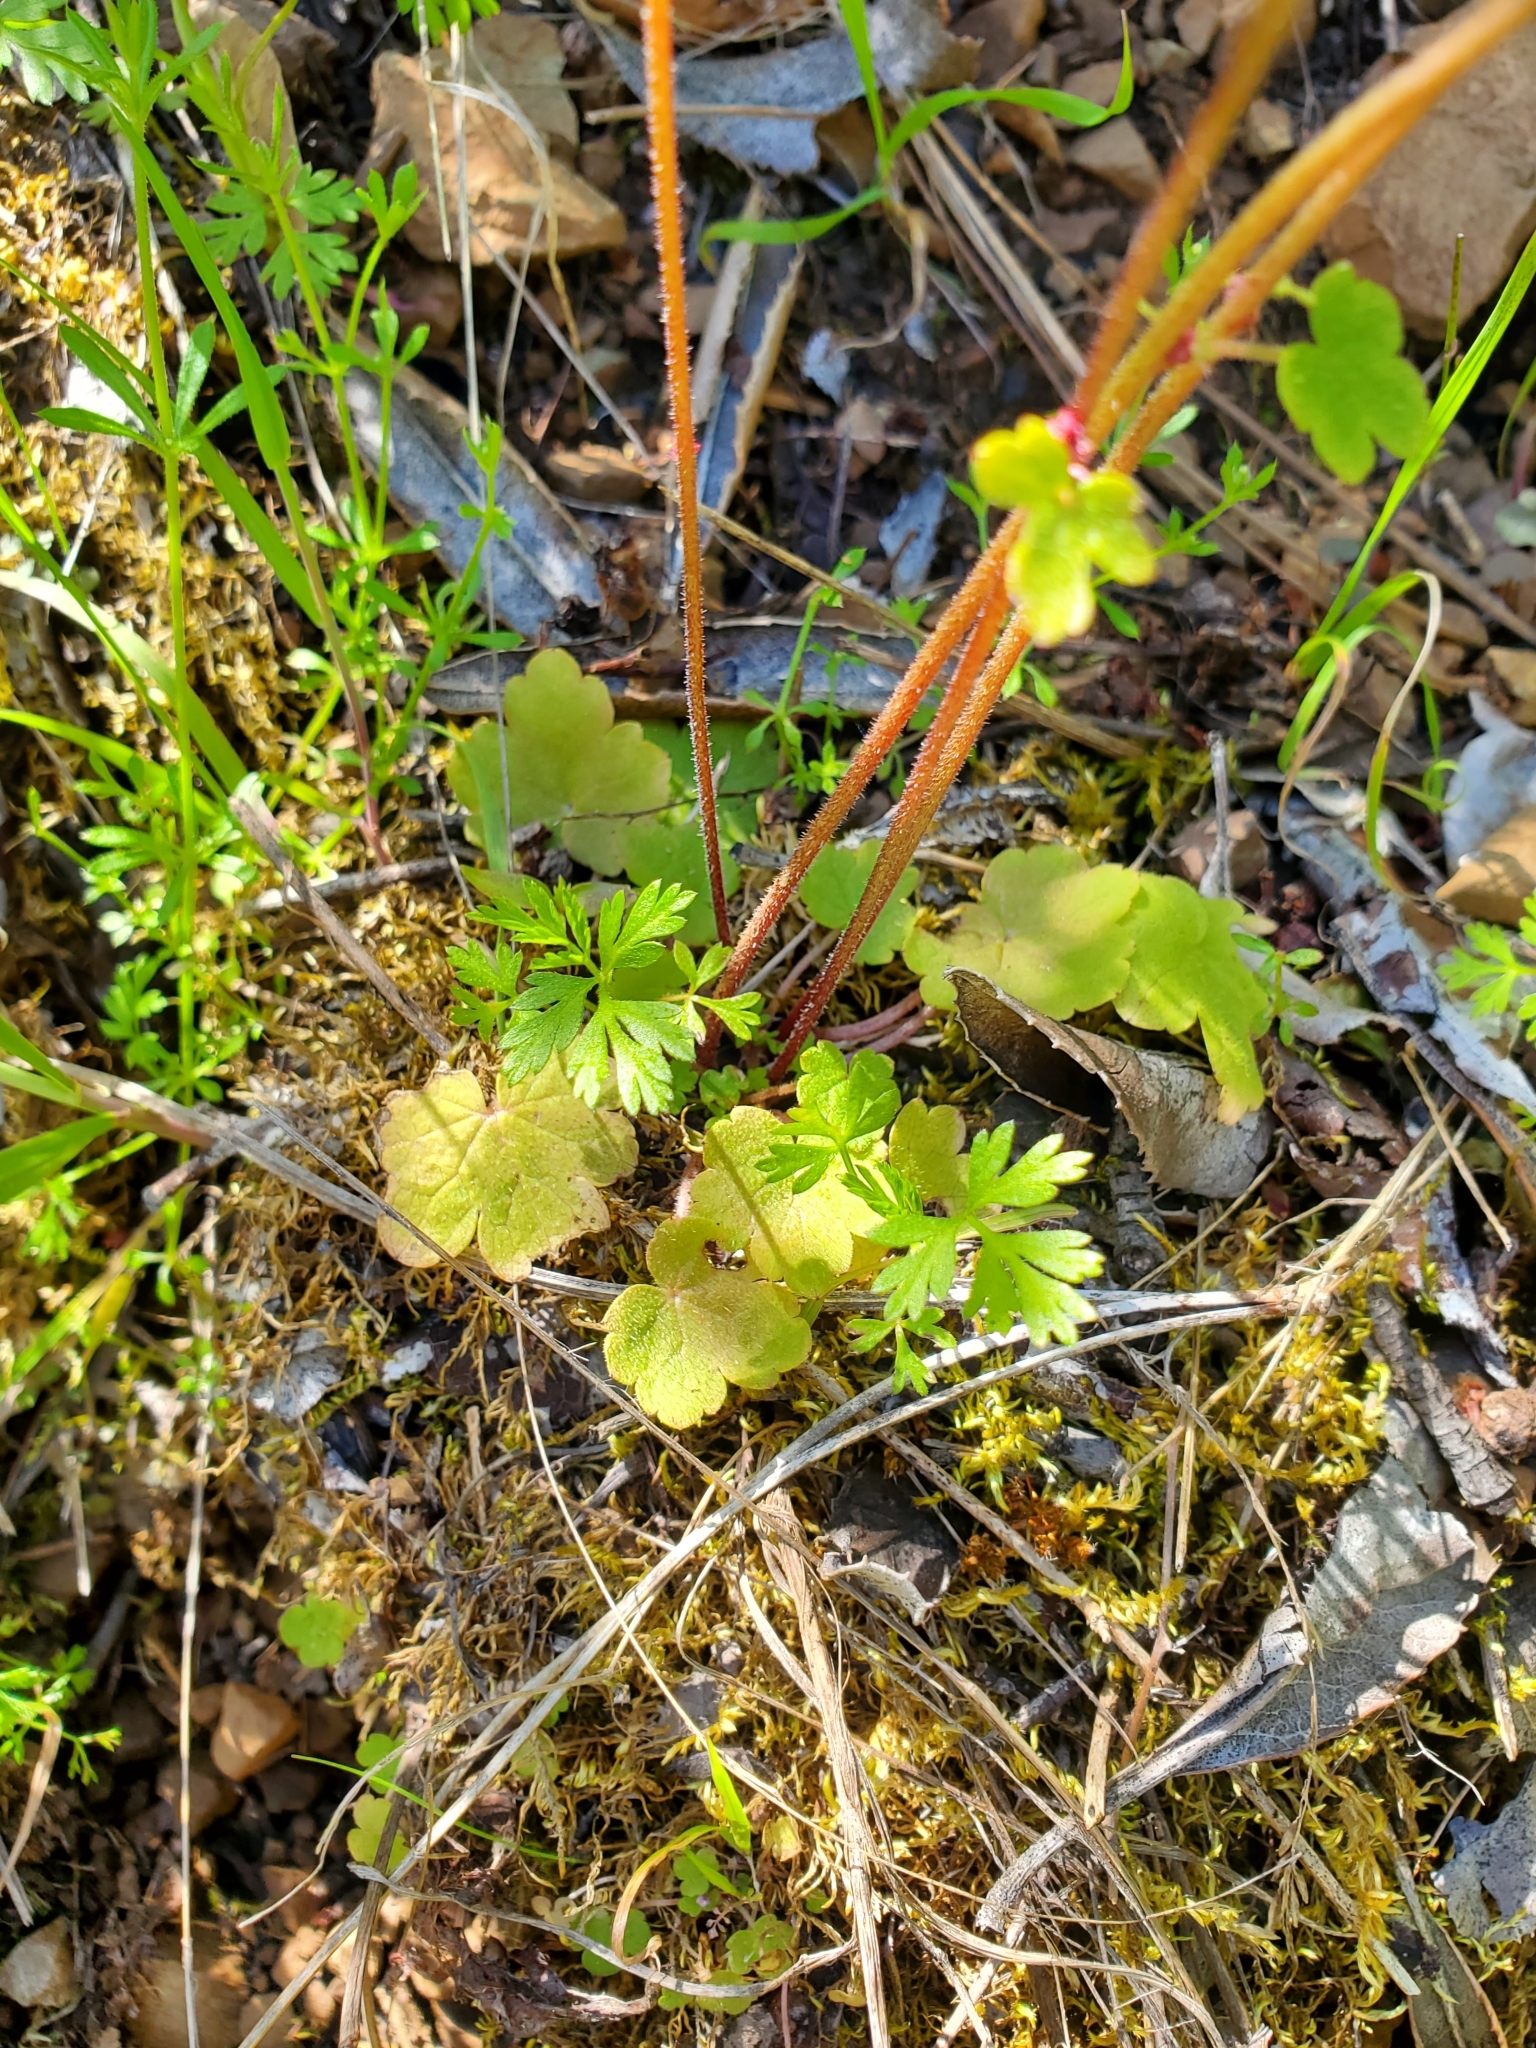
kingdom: Plantae
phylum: Tracheophyta
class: Magnoliopsida
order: Saxifragales
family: Saxifragaceae
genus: Lithophragma
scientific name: Lithophragma heterophyllum
